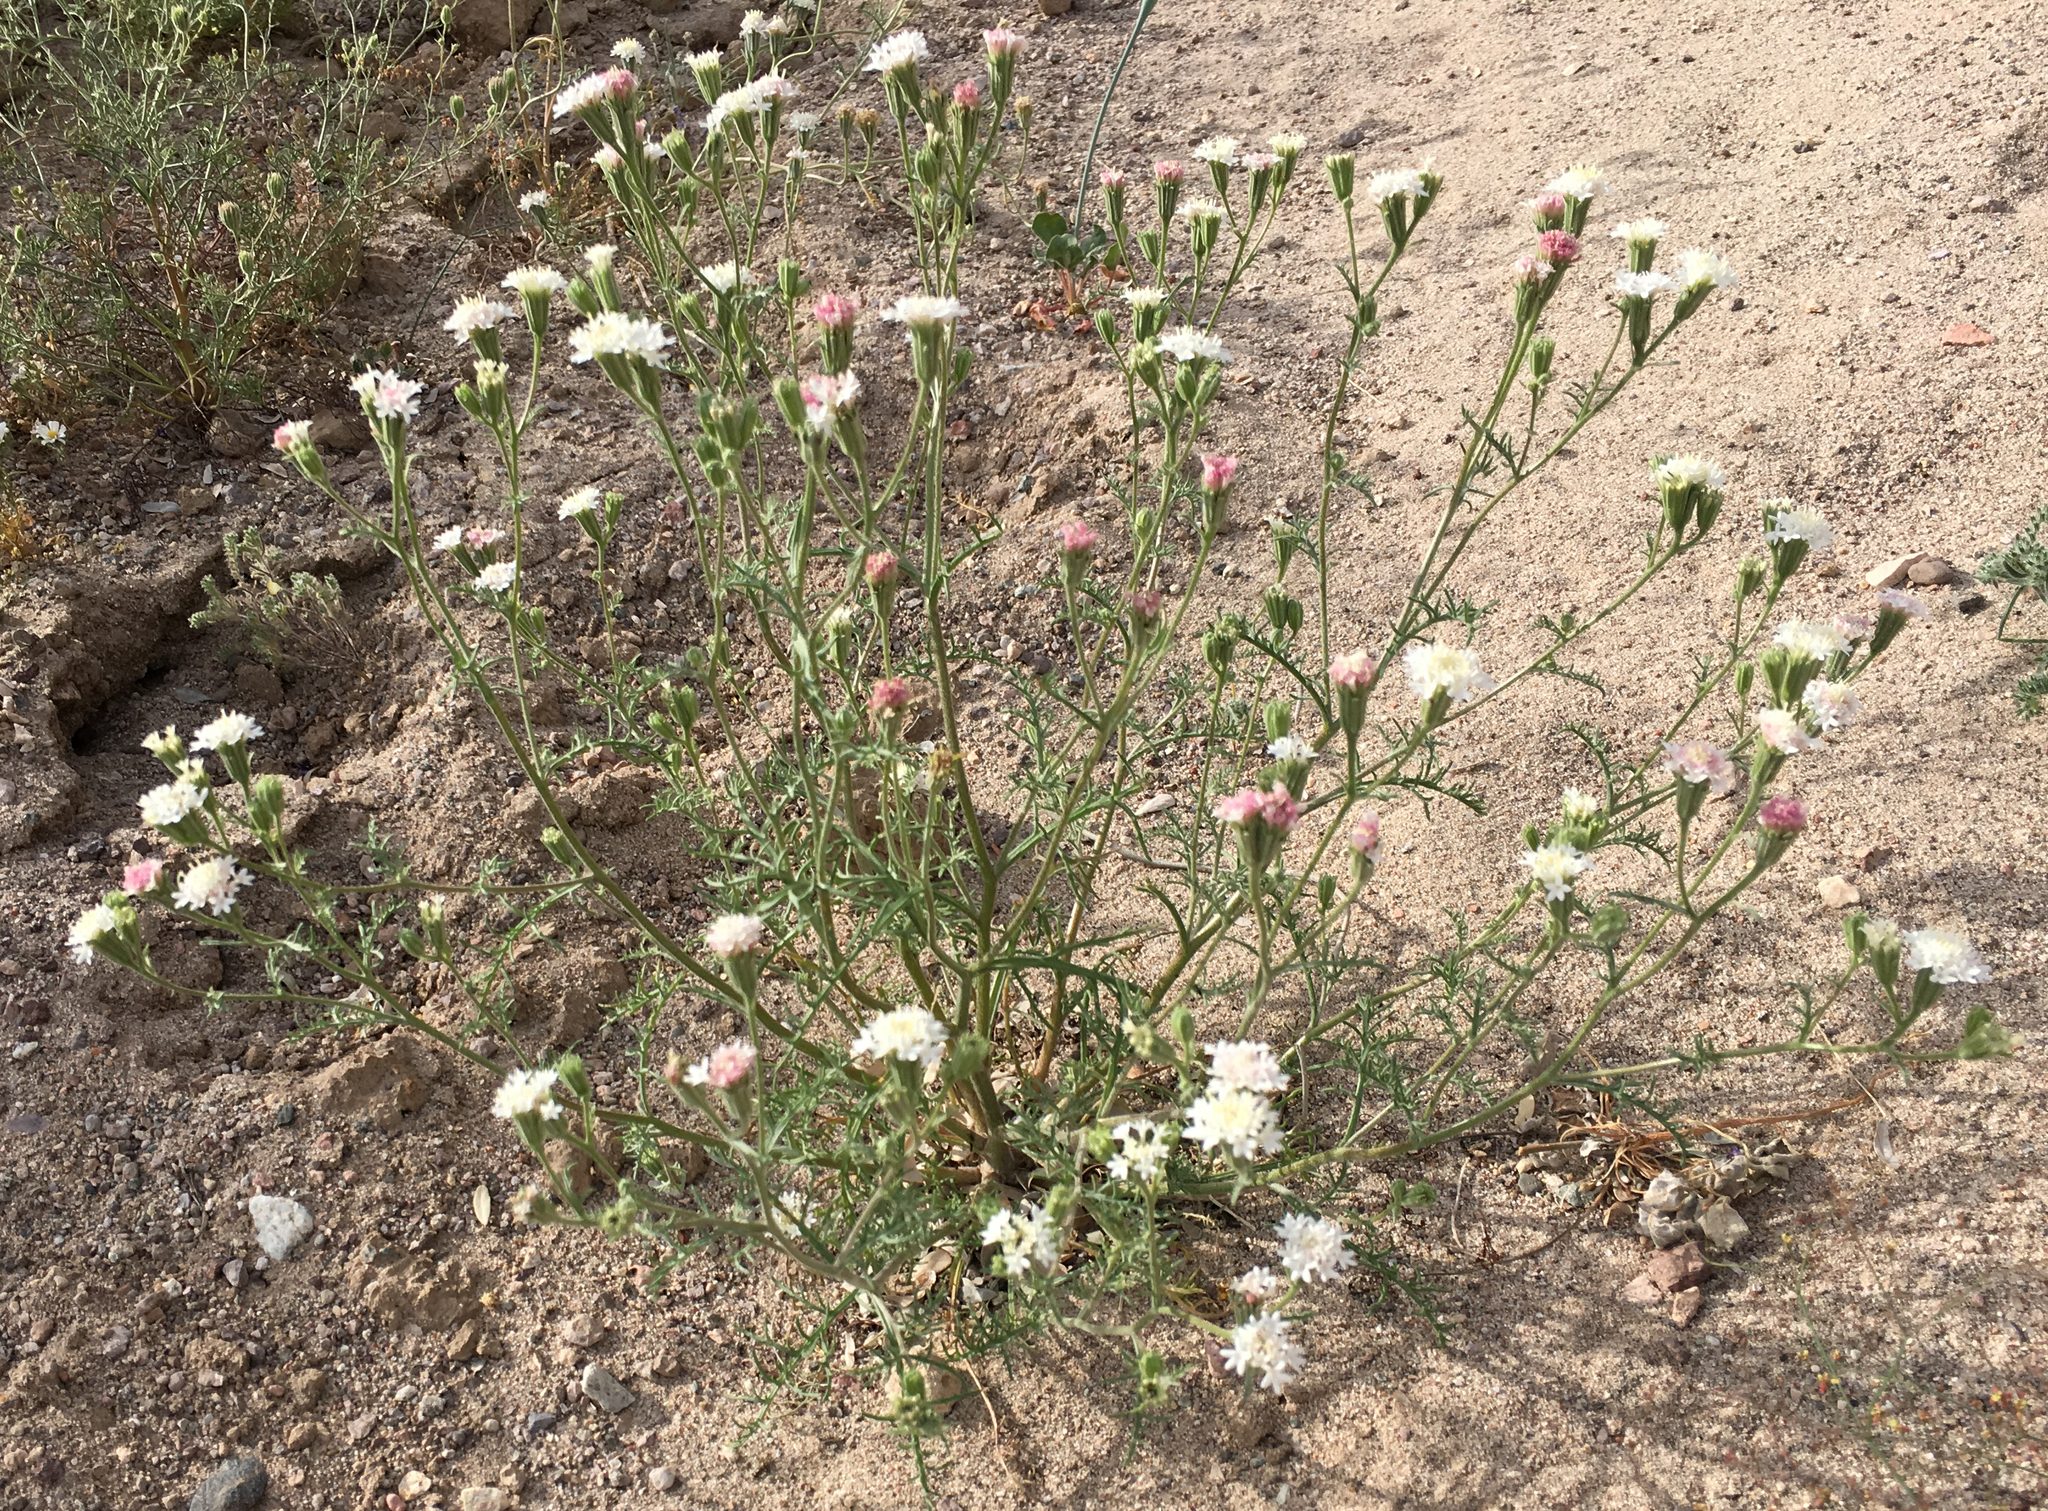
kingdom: Plantae
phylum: Tracheophyta
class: Magnoliopsida
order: Asterales
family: Asteraceae
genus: Chaenactis
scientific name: Chaenactis stevioides
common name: Desert pincushion
